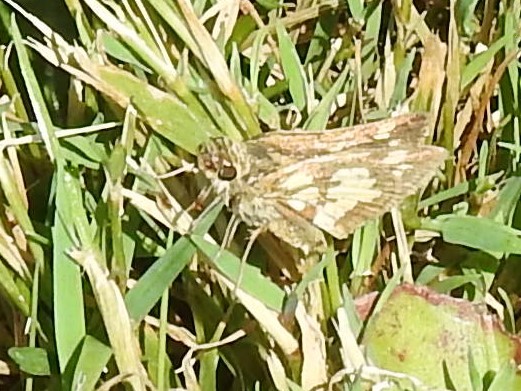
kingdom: Animalia
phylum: Arthropoda
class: Insecta
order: Lepidoptera
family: Hesperiidae
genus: Polites
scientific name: Polites coras
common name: Peck's skipper
